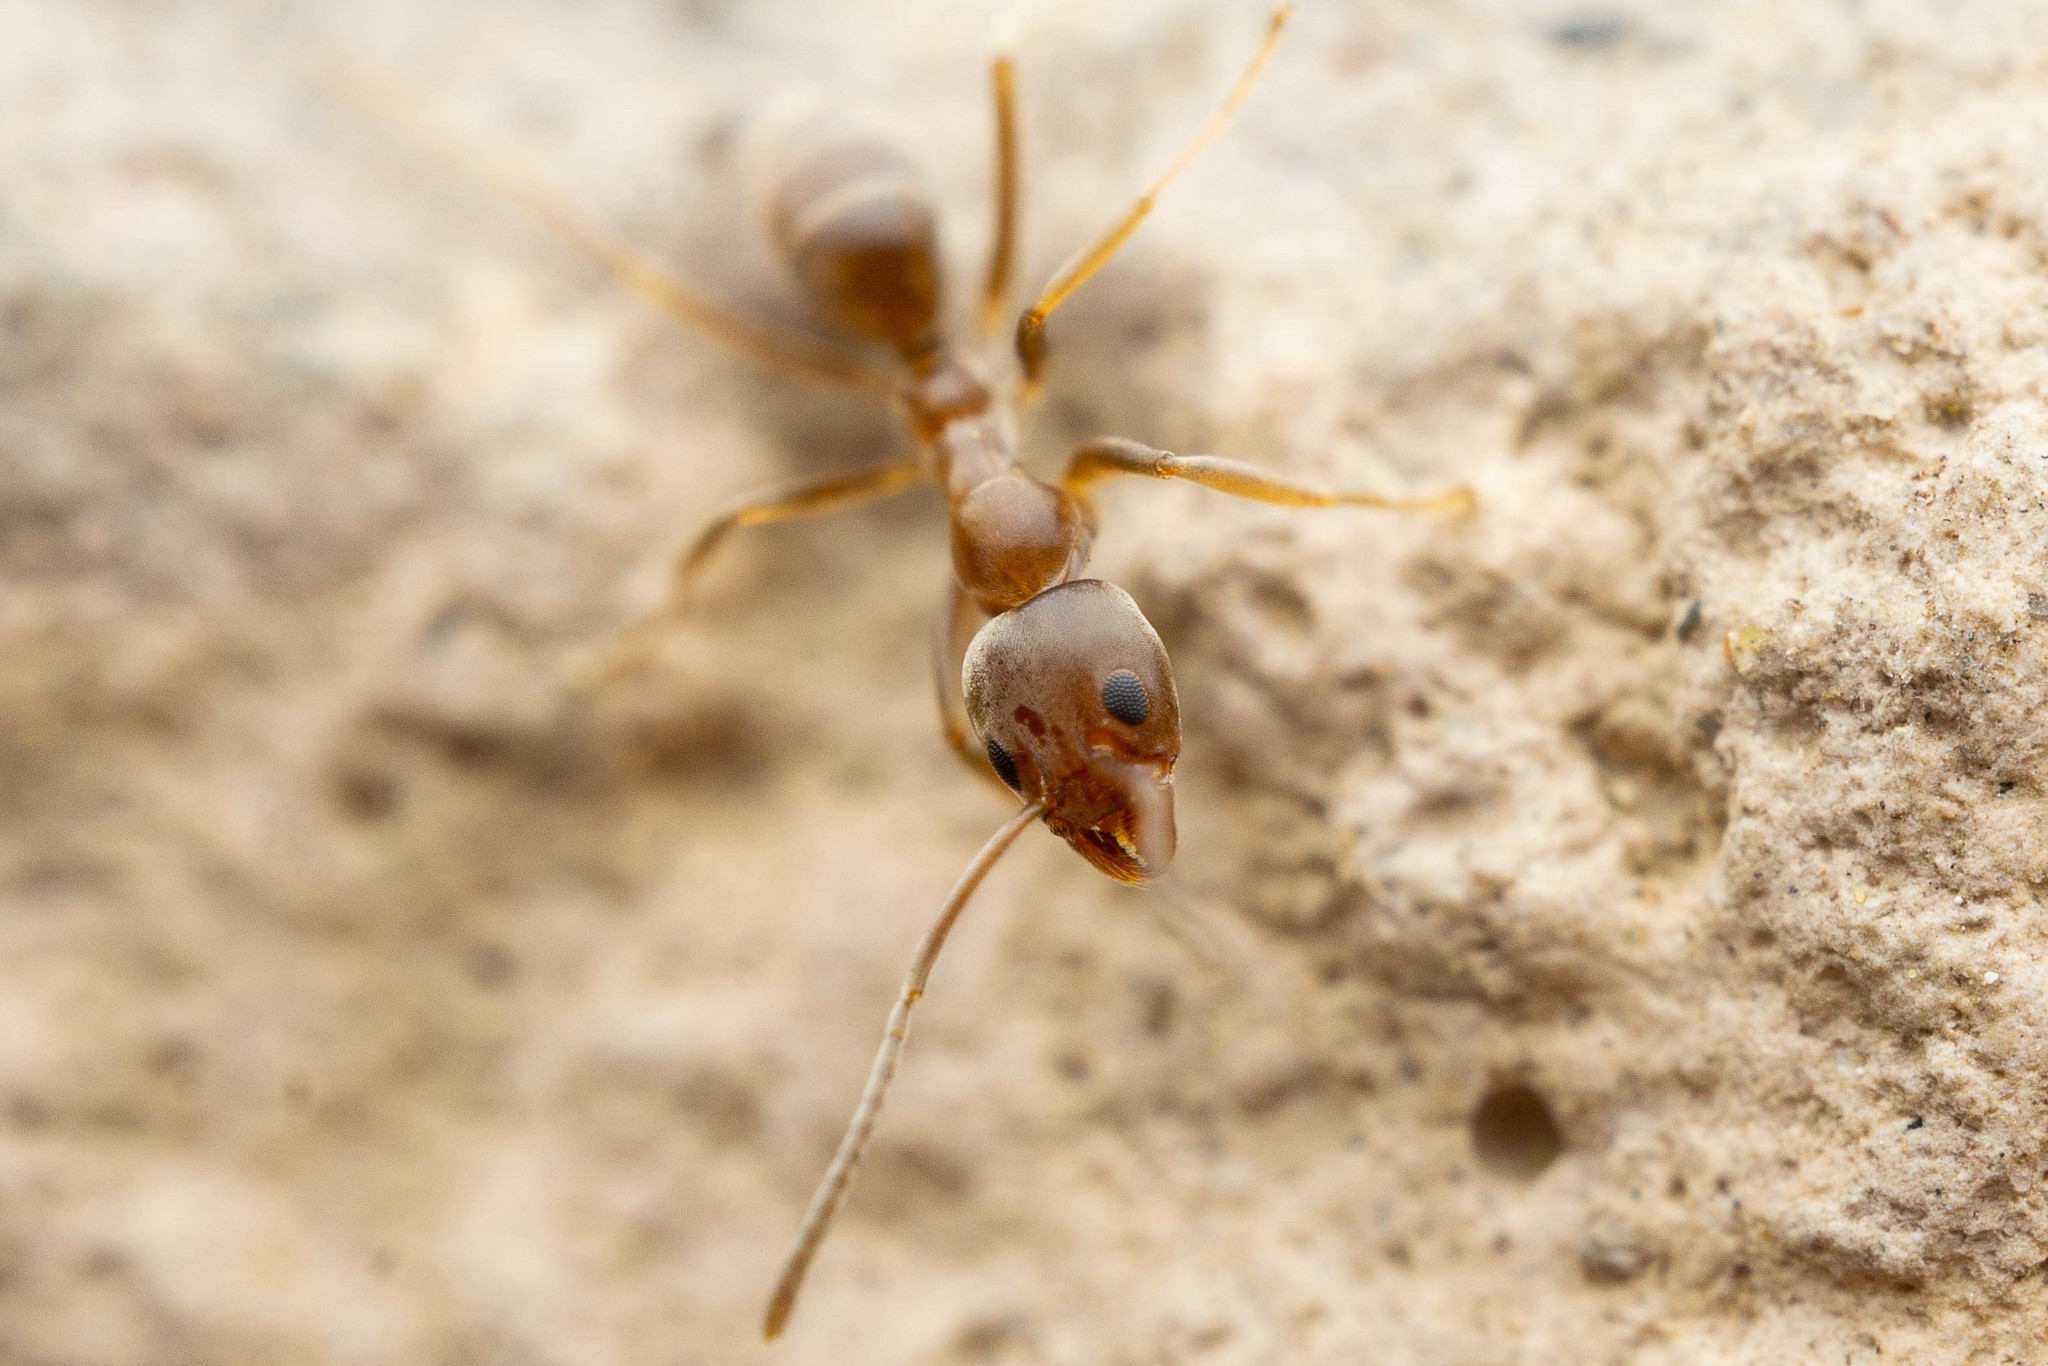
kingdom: Animalia
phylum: Arthropoda
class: Insecta
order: Hymenoptera
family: Formicidae
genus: Linepithema
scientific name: Linepithema humile
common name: Argentine ant
